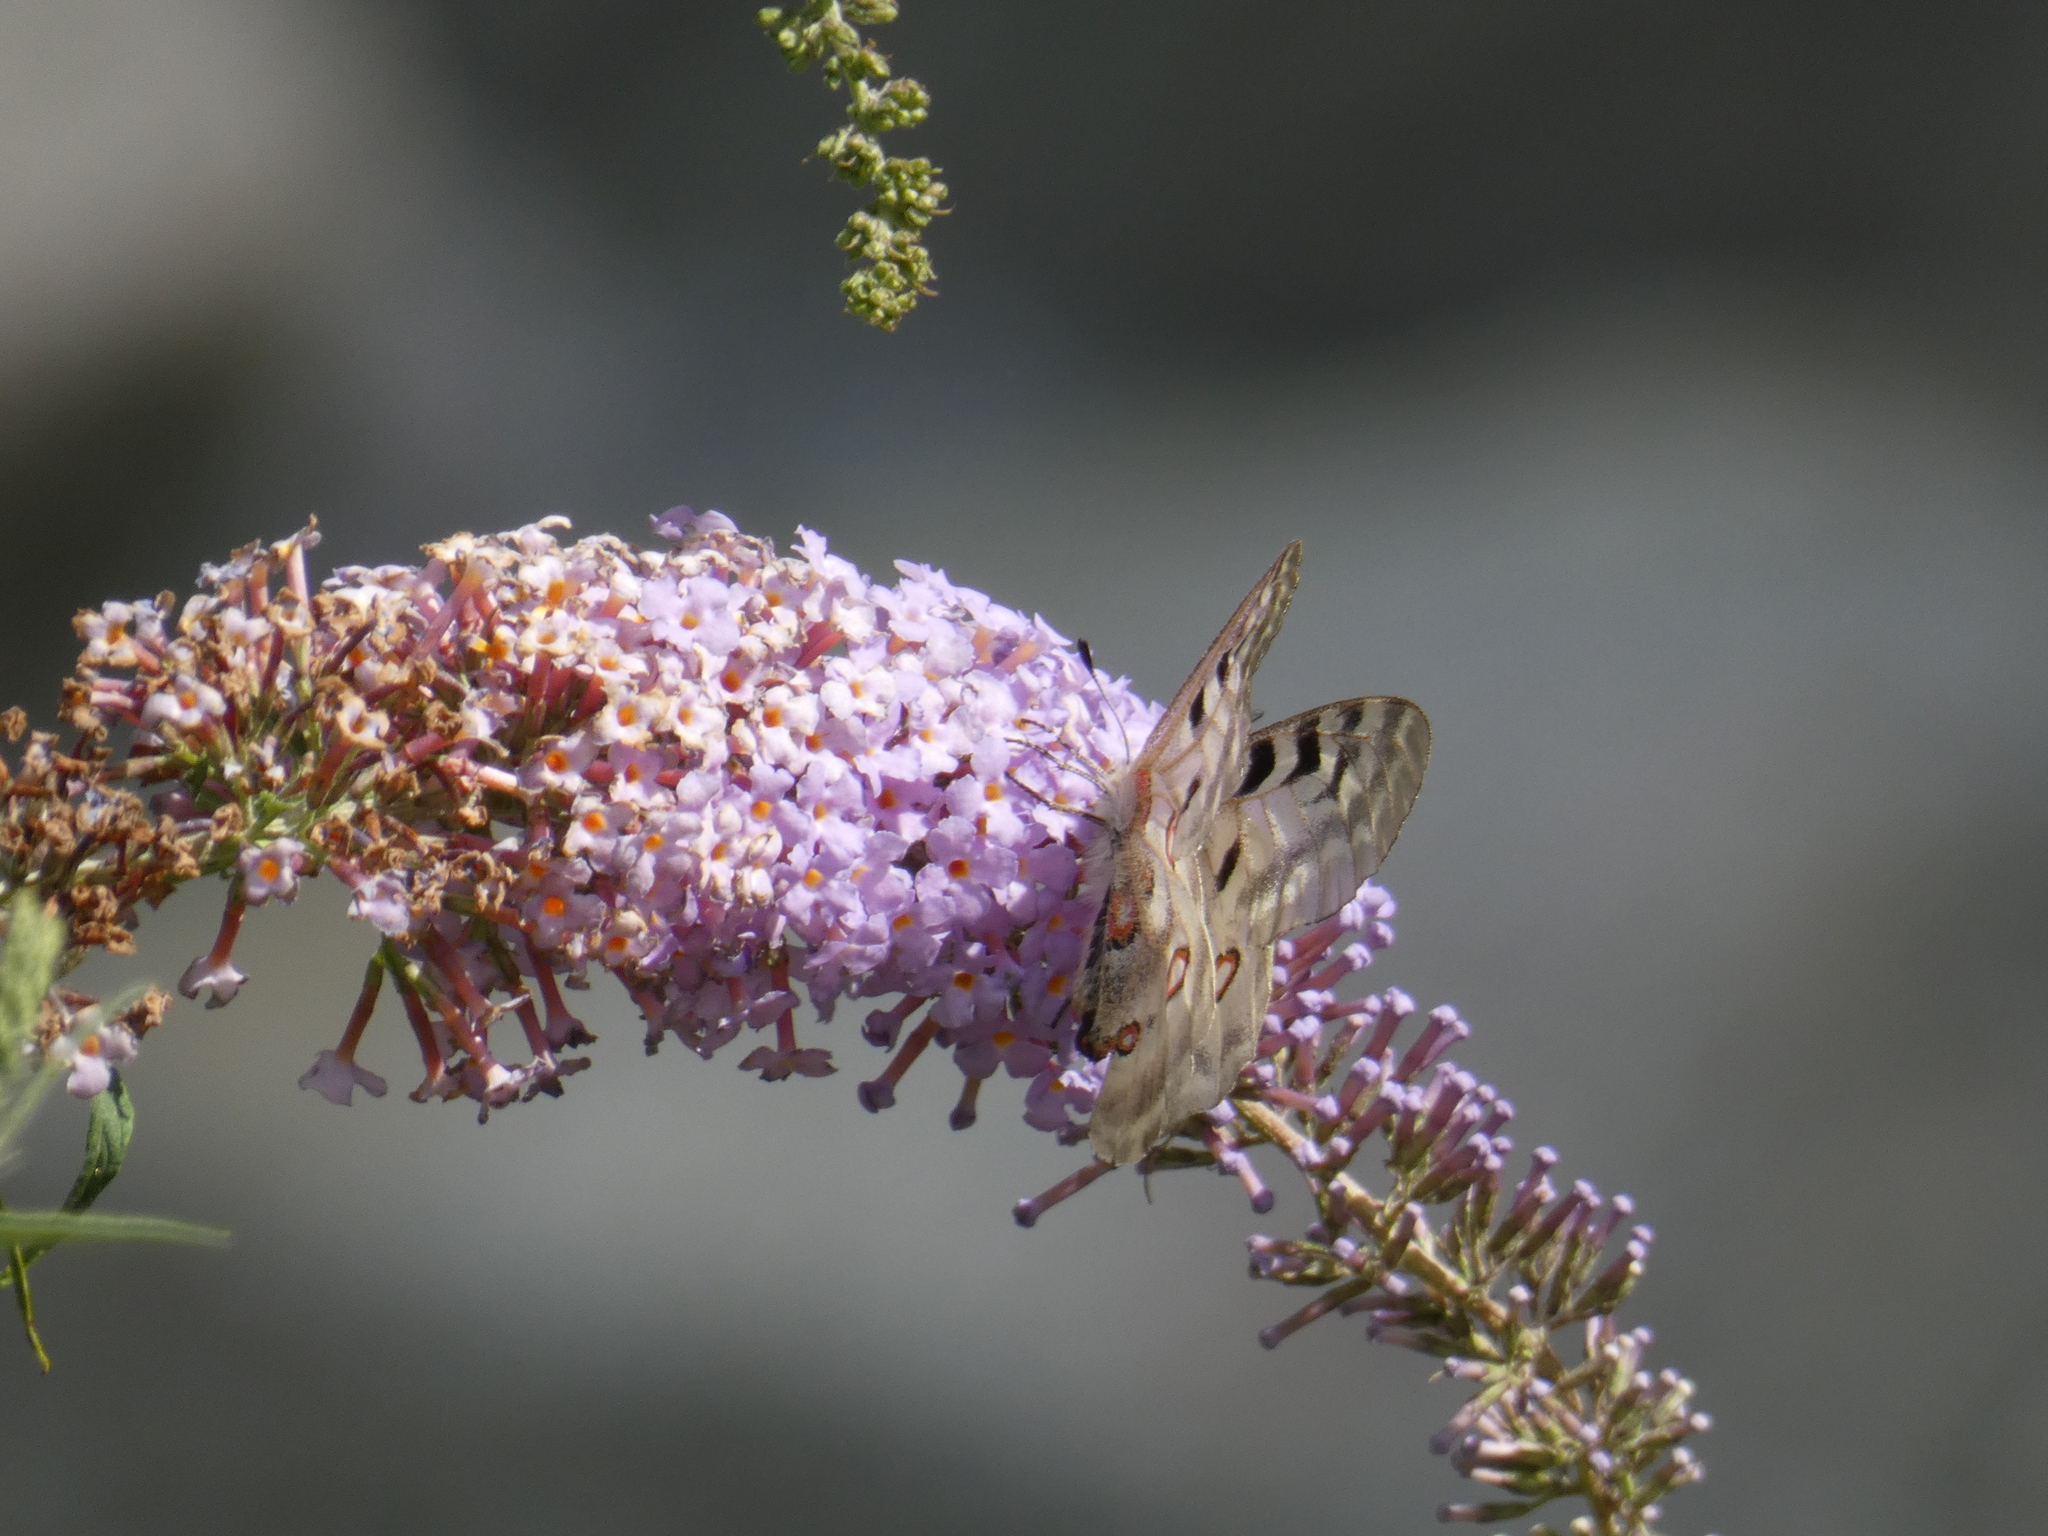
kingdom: Animalia
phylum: Arthropoda
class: Insecta
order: Lepidoptera
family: Papilionidae
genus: Parnassius
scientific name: Parnassius apollo
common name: Apollo
